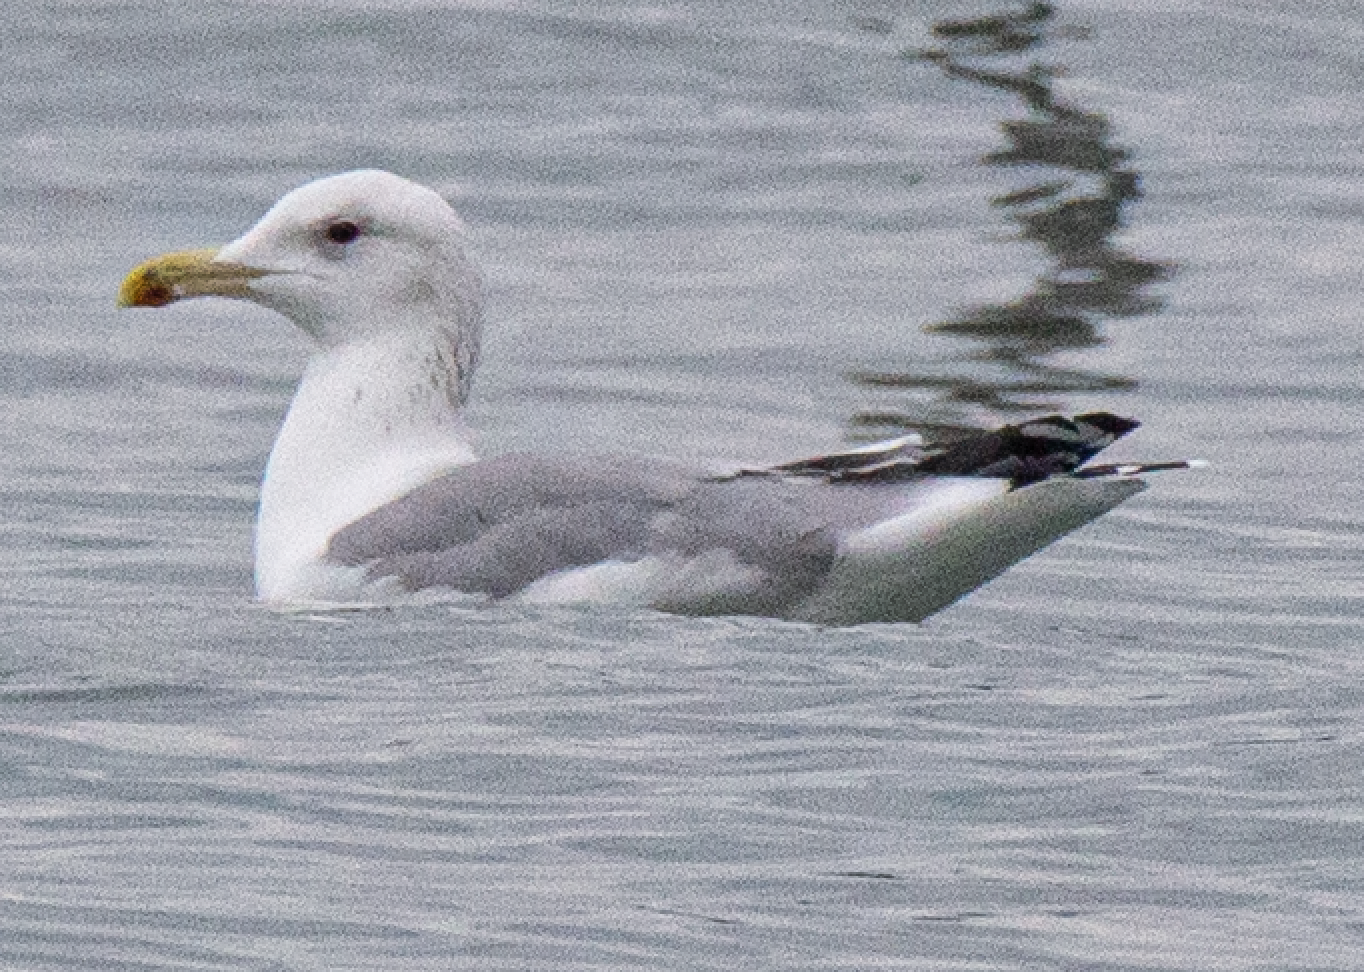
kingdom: Animalia
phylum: Chordata
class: Aves
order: Charadriiformes
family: Laridae
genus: Larus
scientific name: Larus cachinnans
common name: Caspian gull
